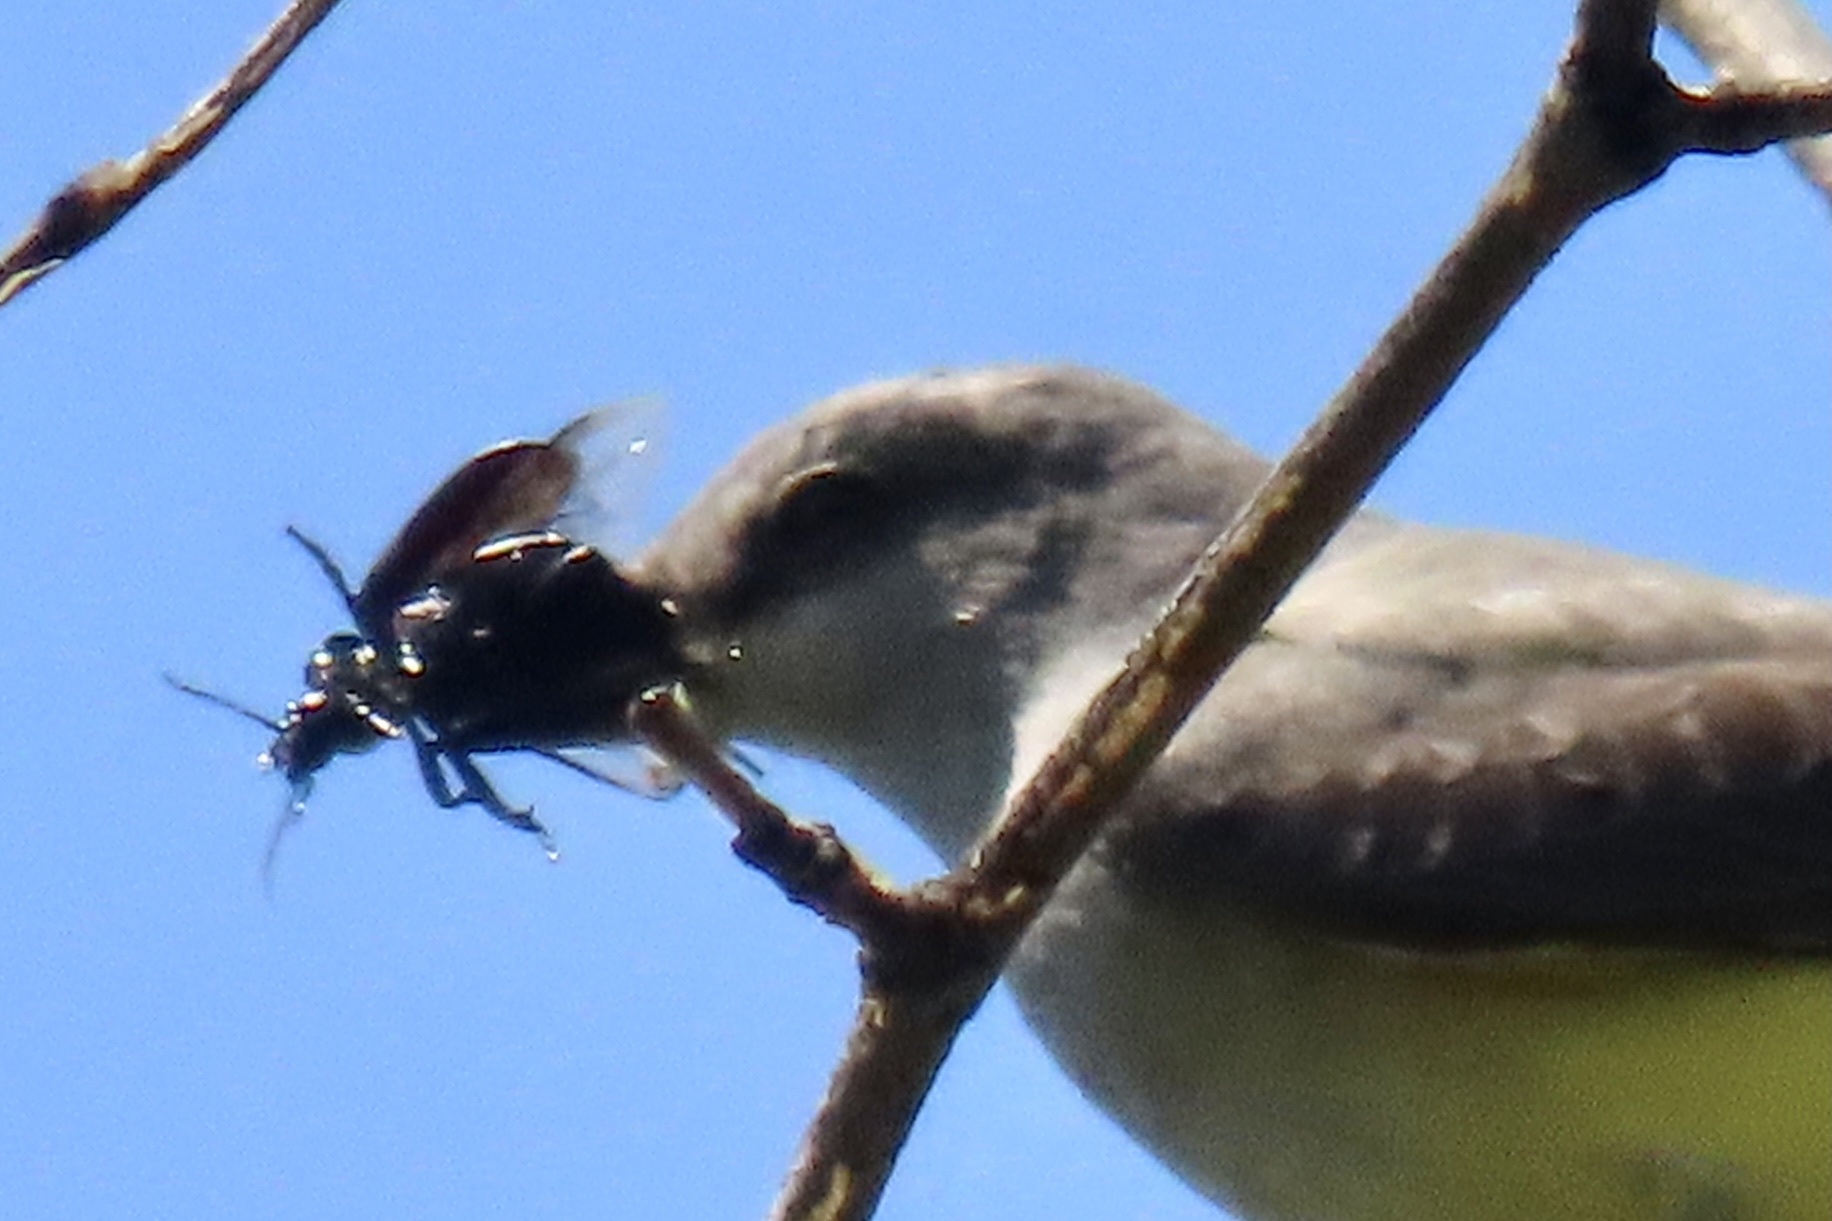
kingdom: Animalia
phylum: Chordata
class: Aves
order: Passeriformes
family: Tyrannidae
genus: Tyrannus
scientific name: Tyrannus verticalis
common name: Western kingbird
